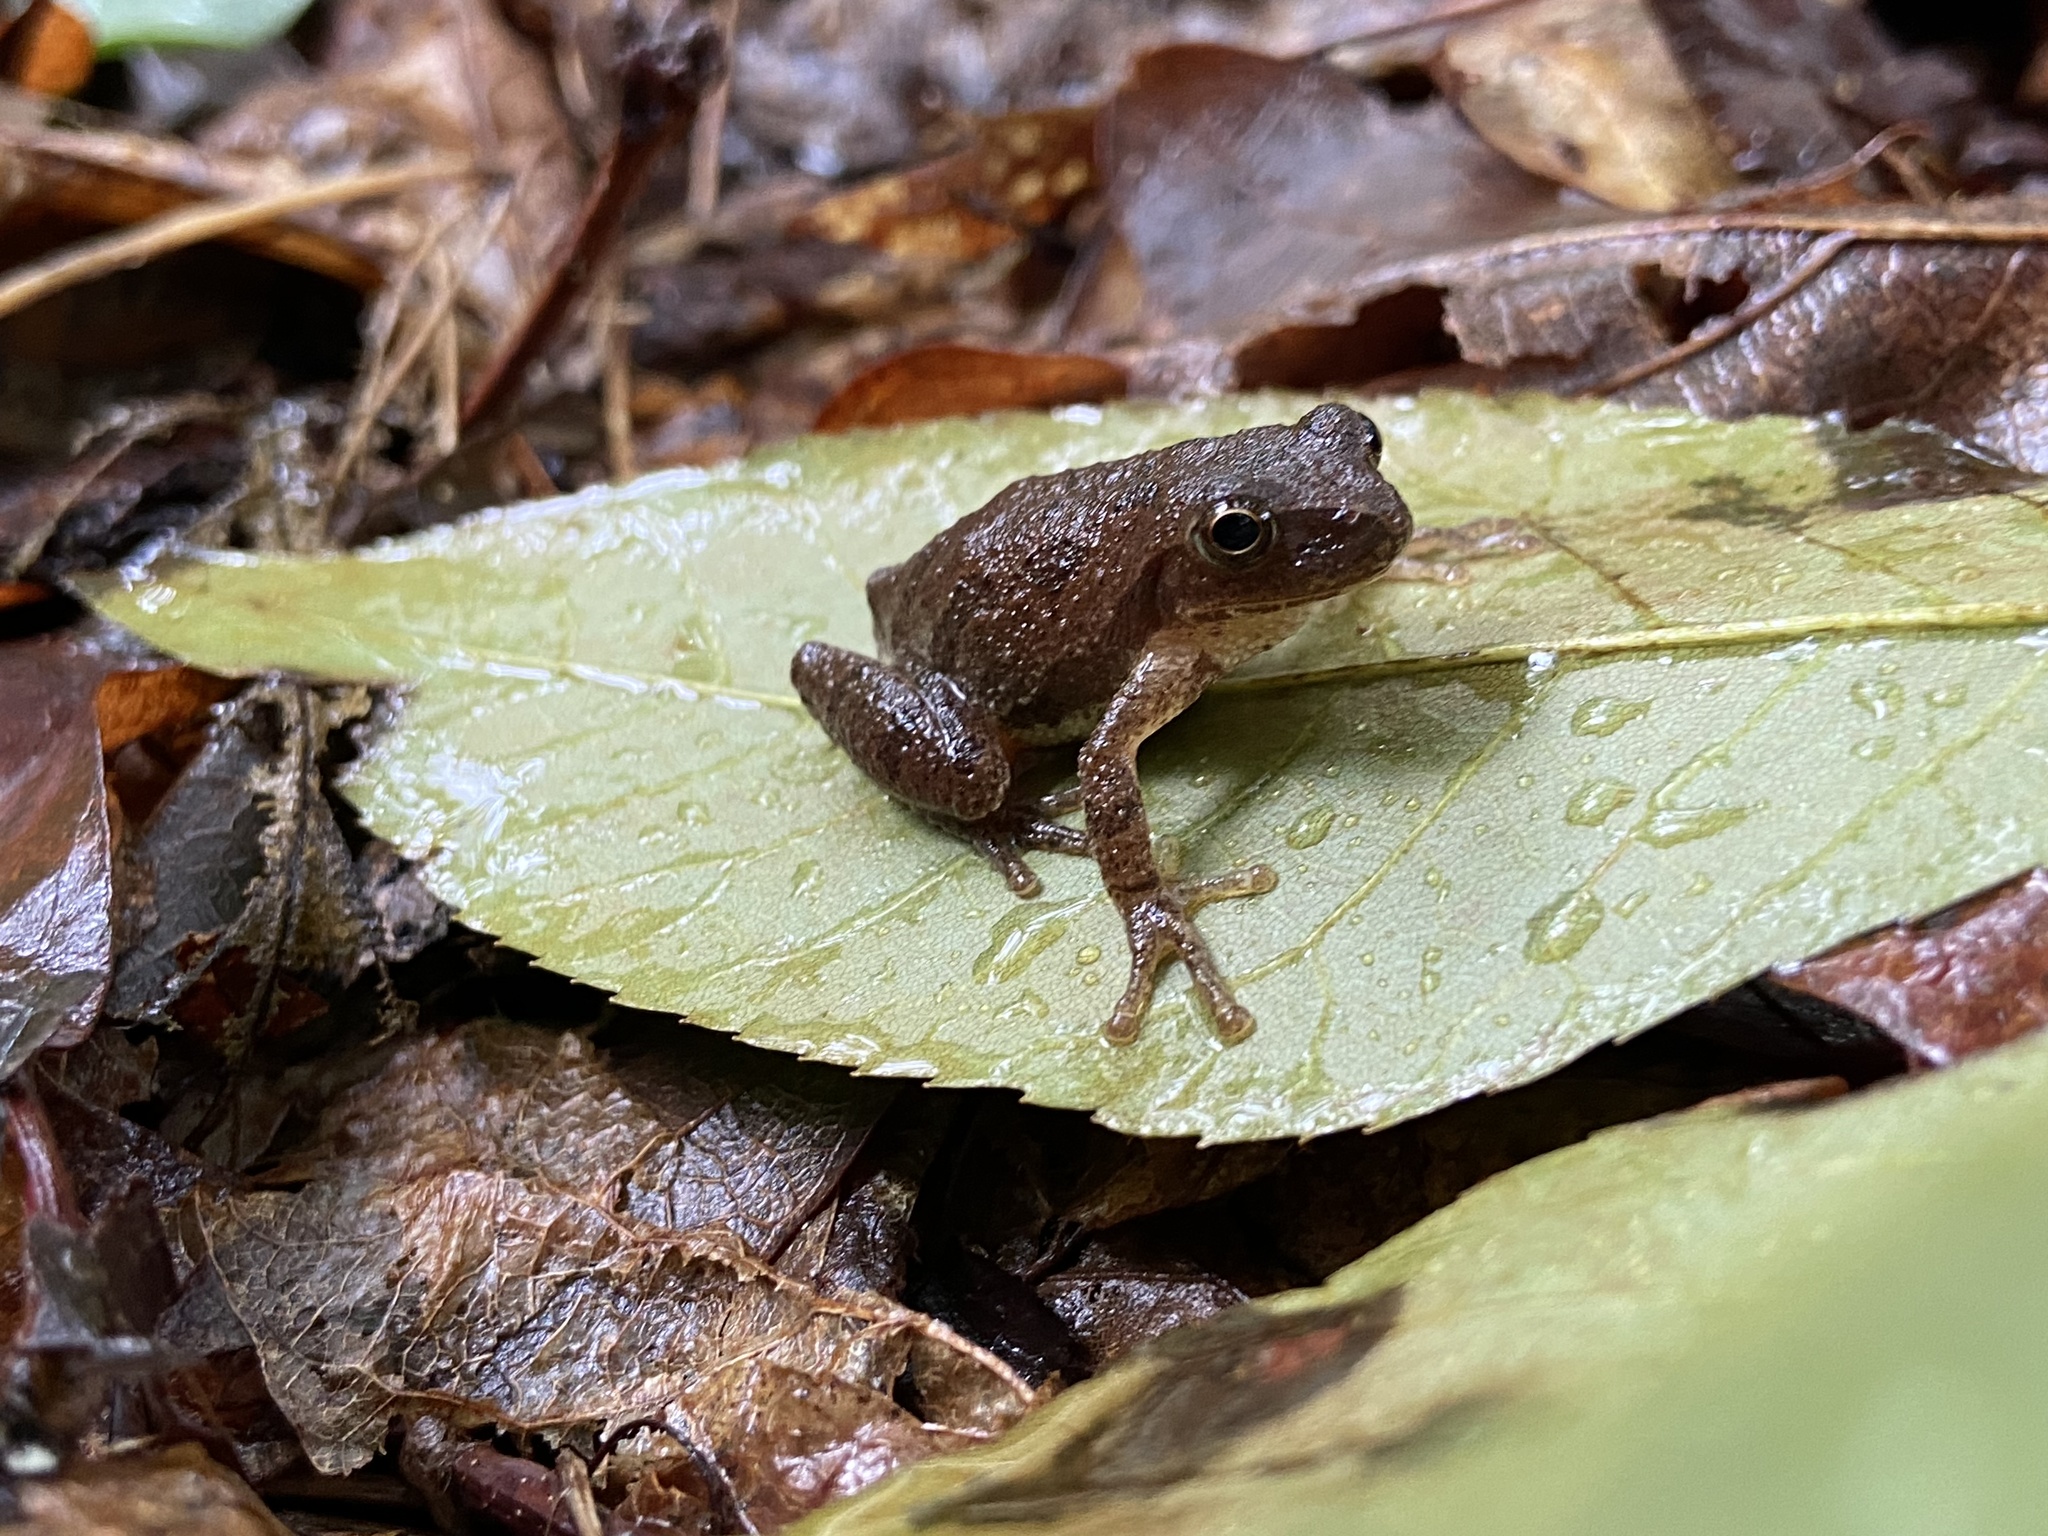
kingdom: Animalia
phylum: Chordata
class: Amphibia
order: Anura
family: Hylidae
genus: Pseudacris
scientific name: Pseudacris crucifer
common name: Spring peeper
